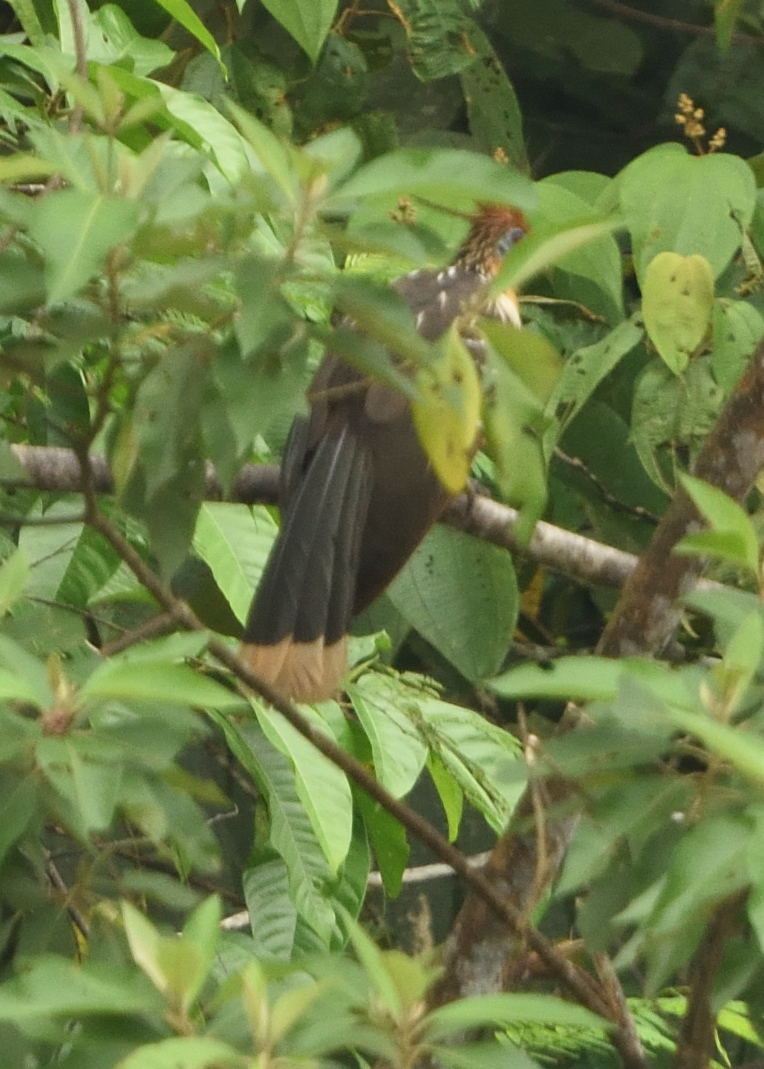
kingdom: Animalia
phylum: Chordata
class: Aves
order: Opisthocomiformes
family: Opisthocomidae
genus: Opisthocomus
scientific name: Opisthocomus hoazin
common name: Hoatzin
